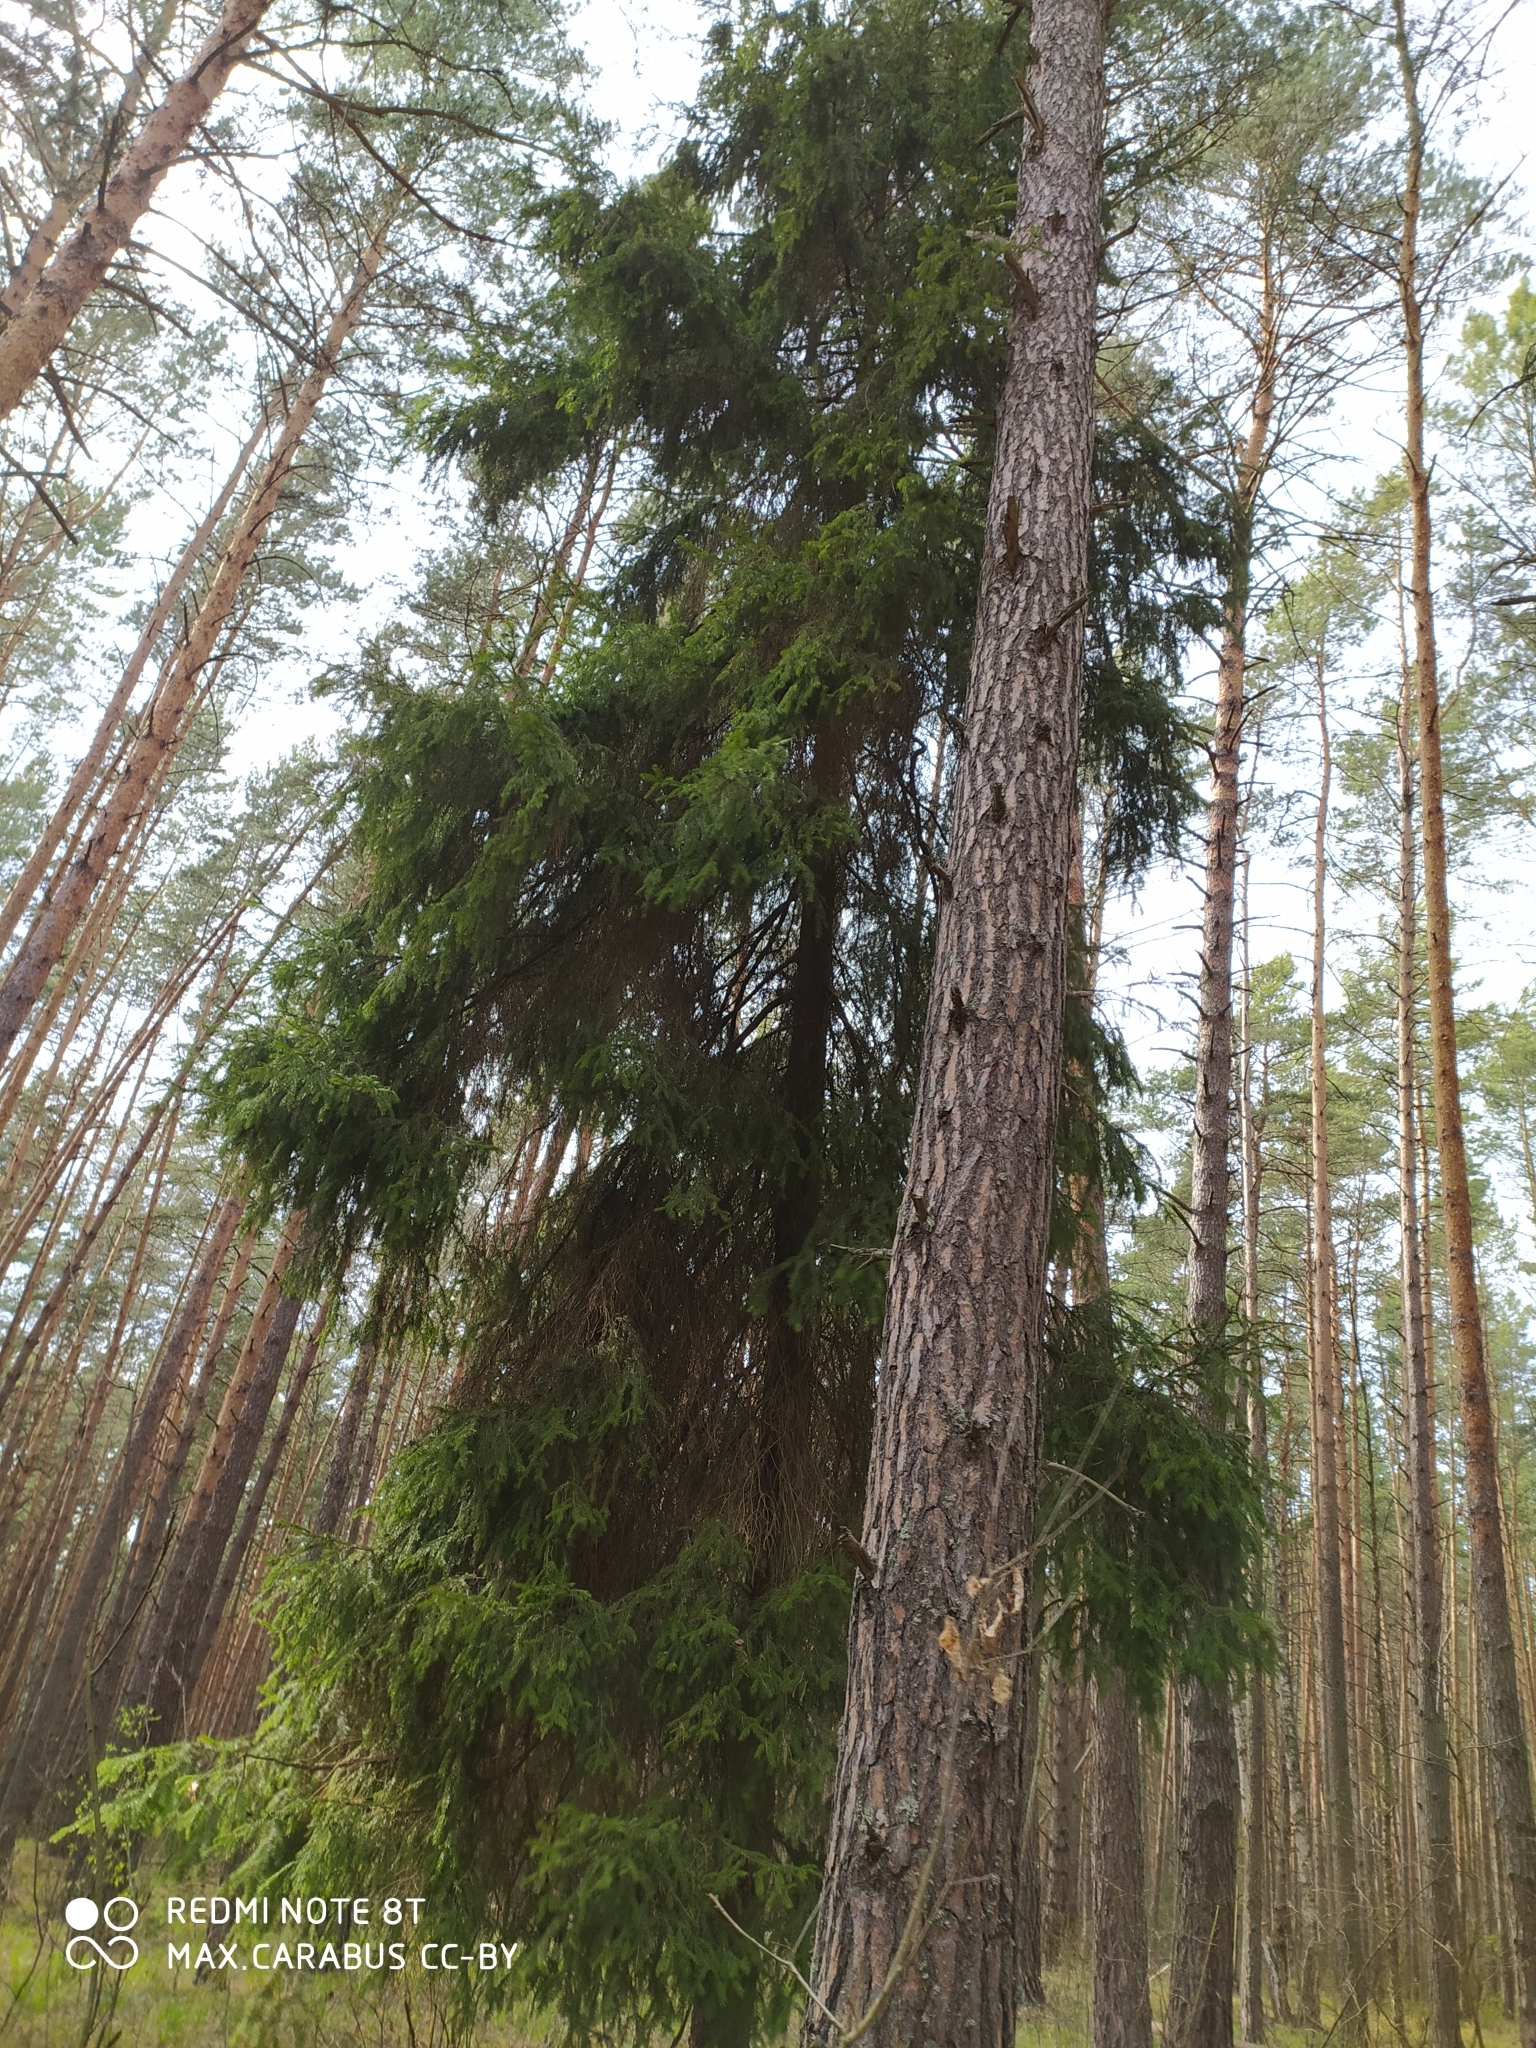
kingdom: Plantae
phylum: Tracheophyta
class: Pinopsida
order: Pinales
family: Pinaceae
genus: Picea
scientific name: Picea abies
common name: Norway spruce
